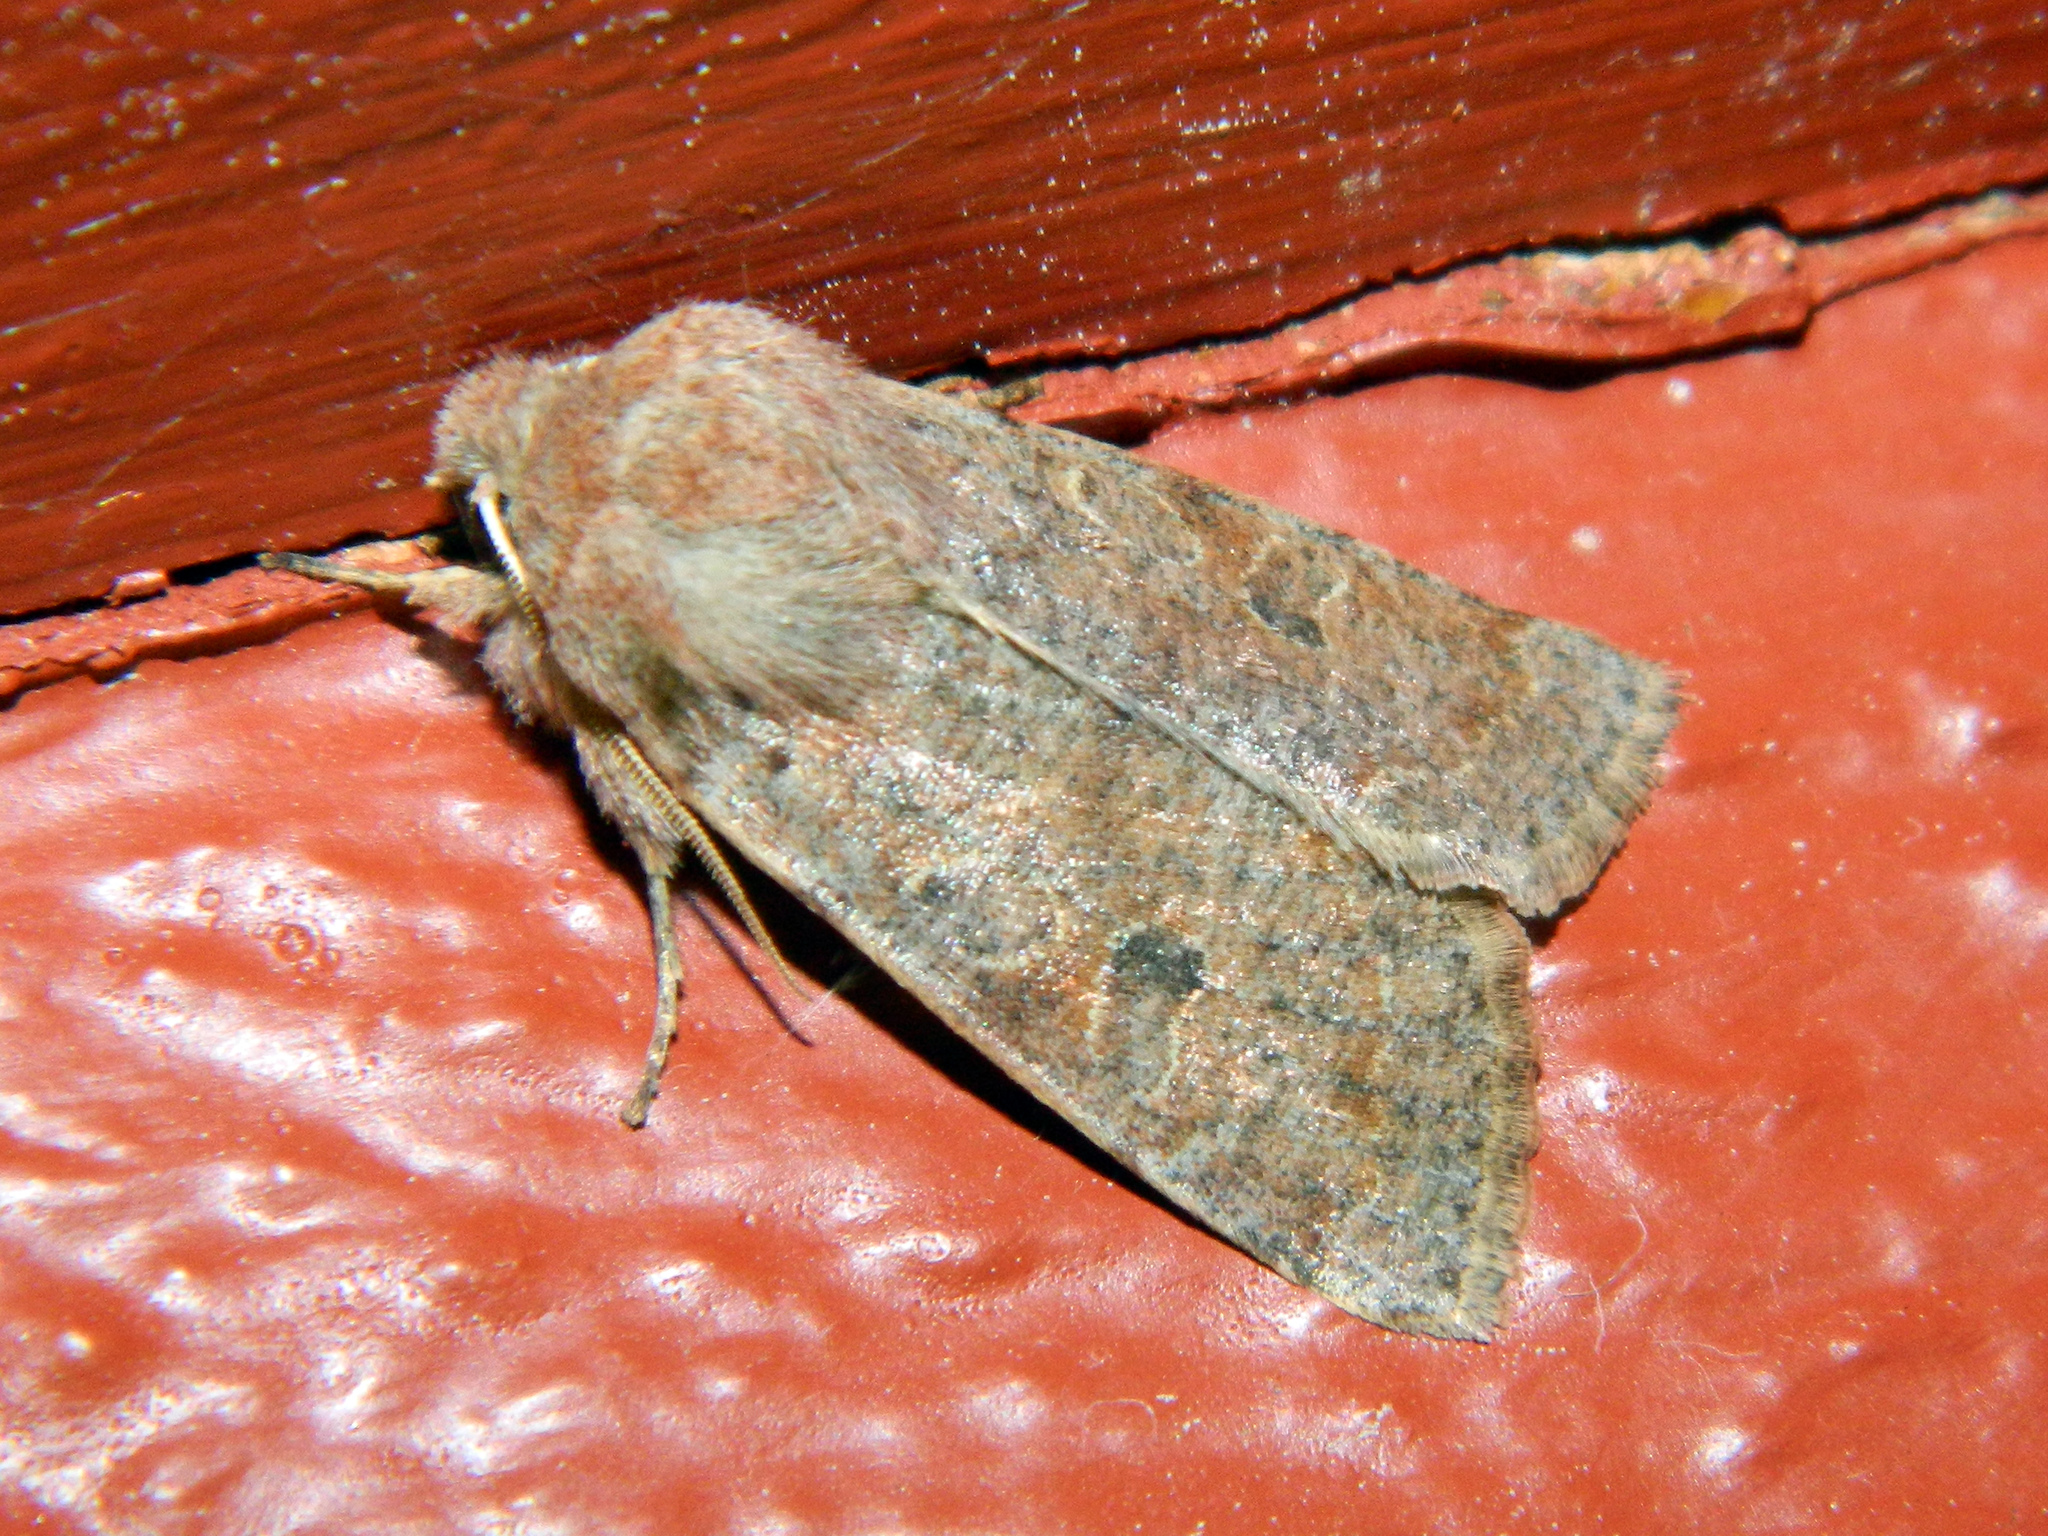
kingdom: Animalia
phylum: Arthropoda
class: Insecta
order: Lepidoptera
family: Noctuidae
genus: Orthosia
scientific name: Orthosia hibisci
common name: Green fruitworm
